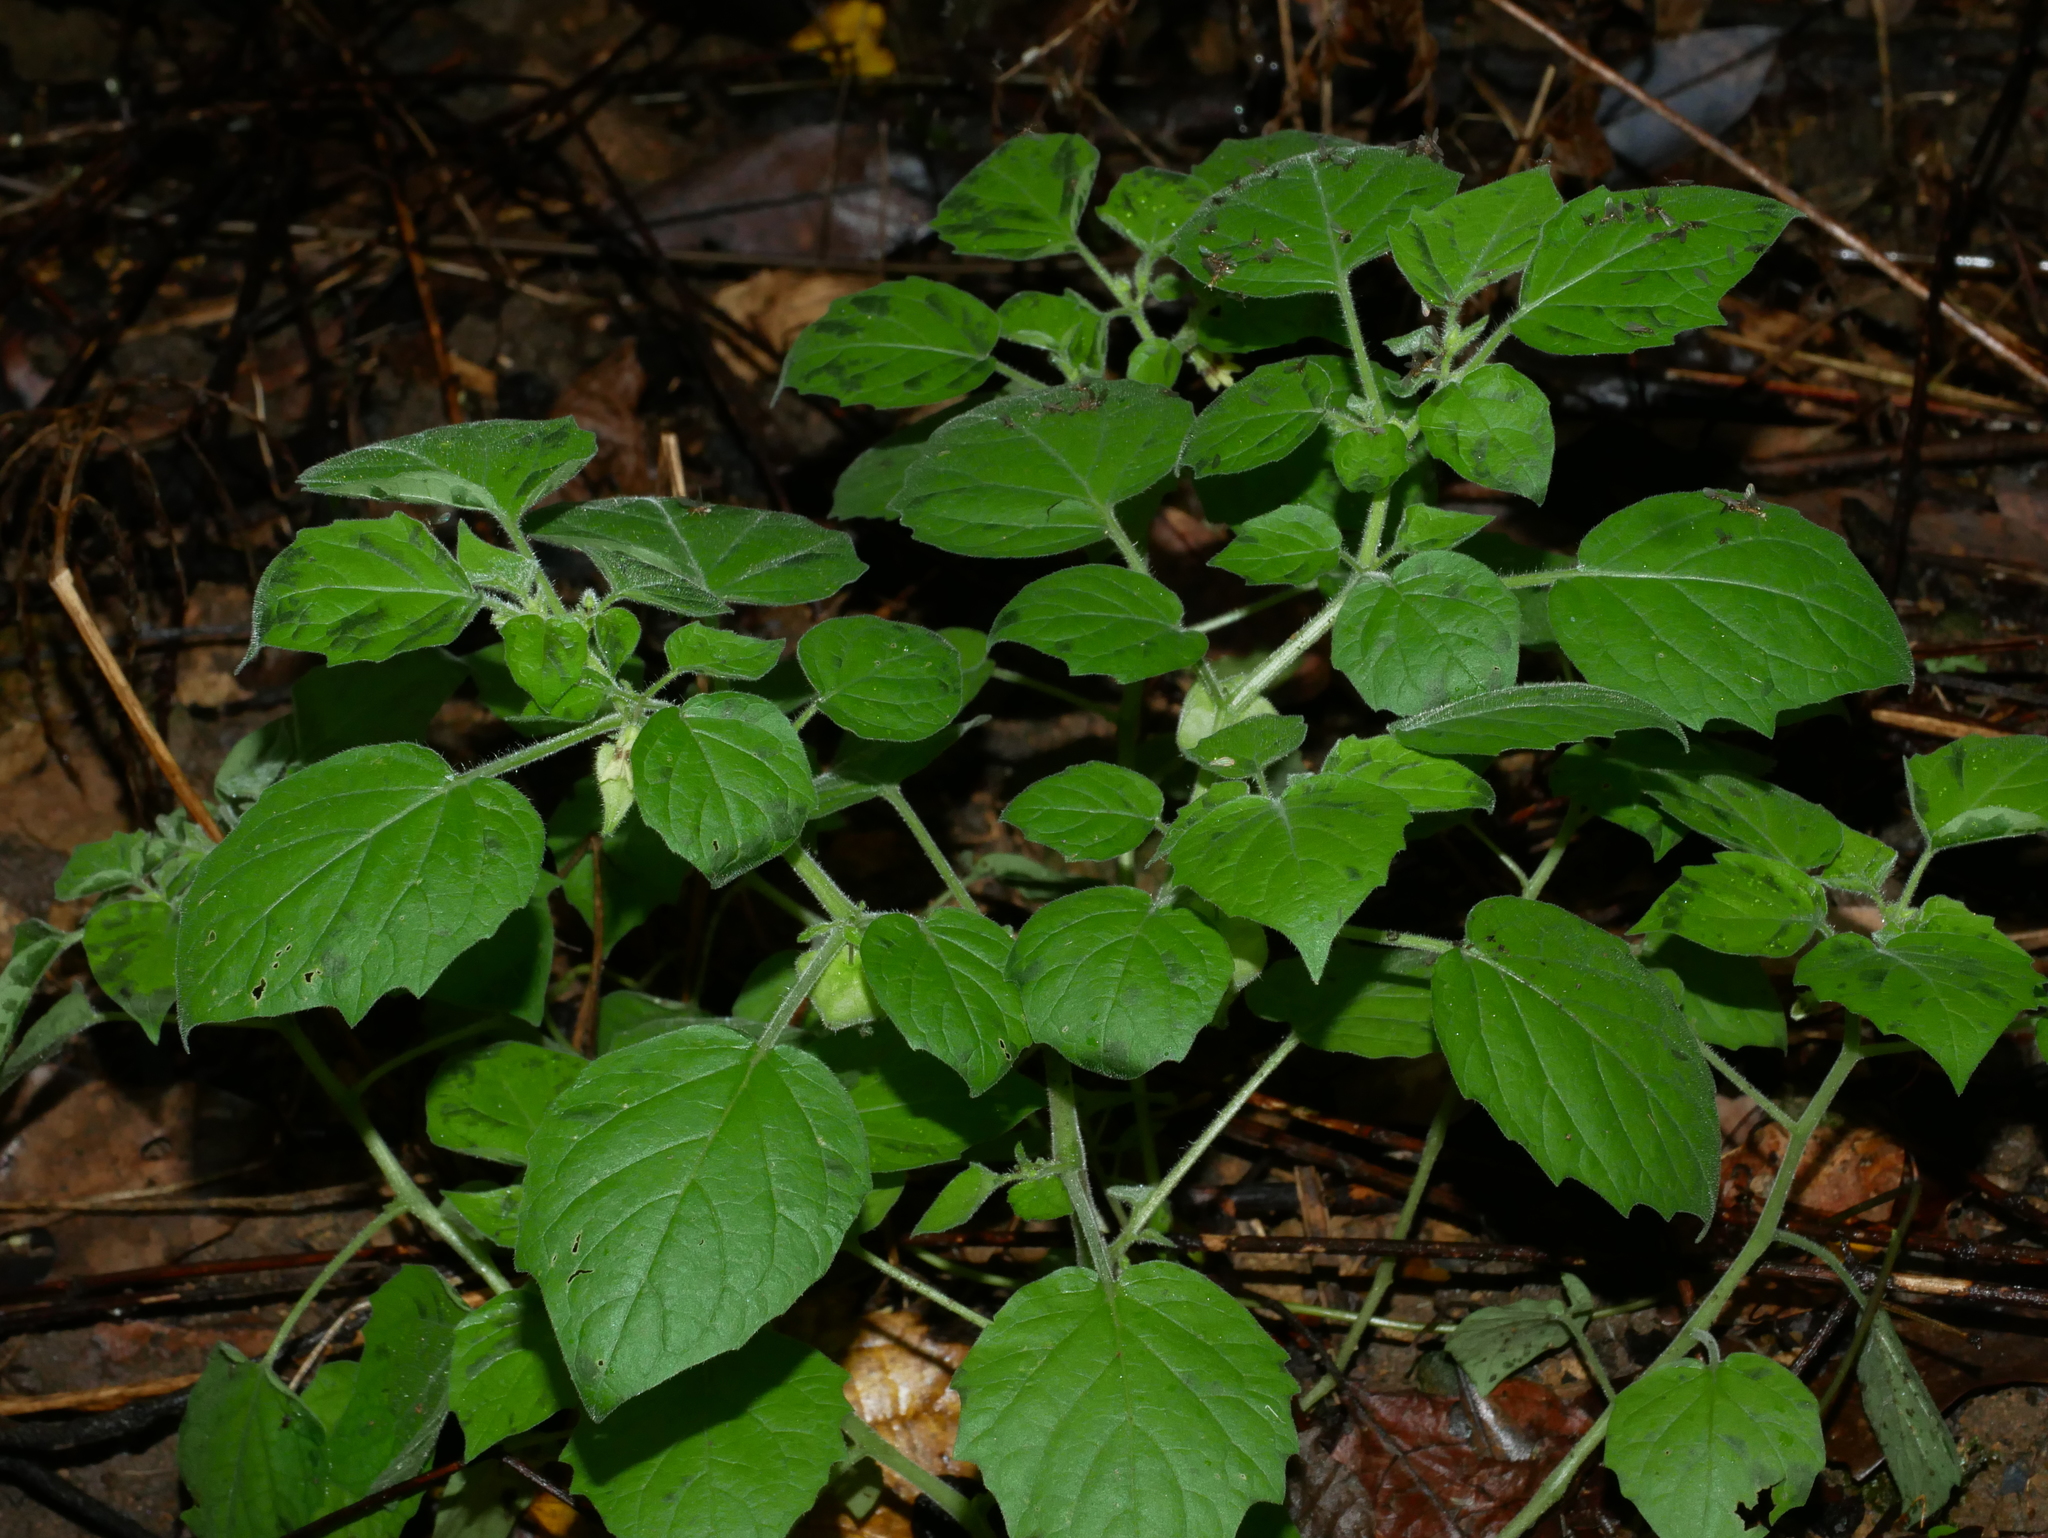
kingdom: Plantae
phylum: Tracheophyta
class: Magnoliopsida
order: Solanales
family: Solanaceae
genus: Physalis
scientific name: Physalis pubescens
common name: Downy ground-cherry
